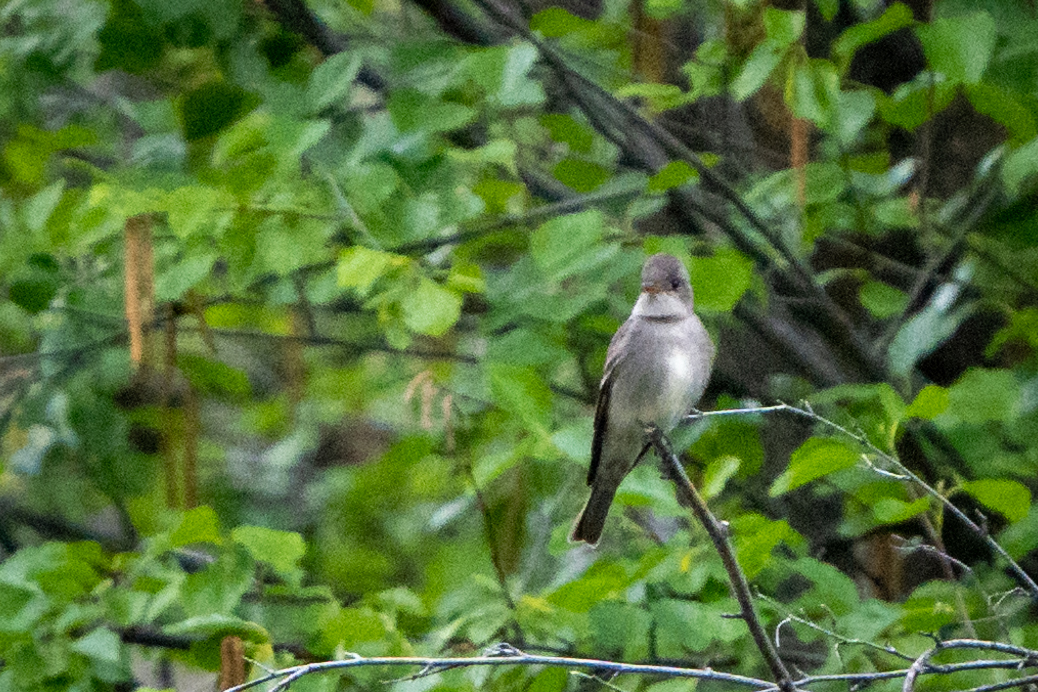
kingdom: Animalia
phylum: Chordata
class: Aves
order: Passeriformes
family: Tyrannidae
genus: Contopus
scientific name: Contopus sordidulus
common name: Western wood-pewee
